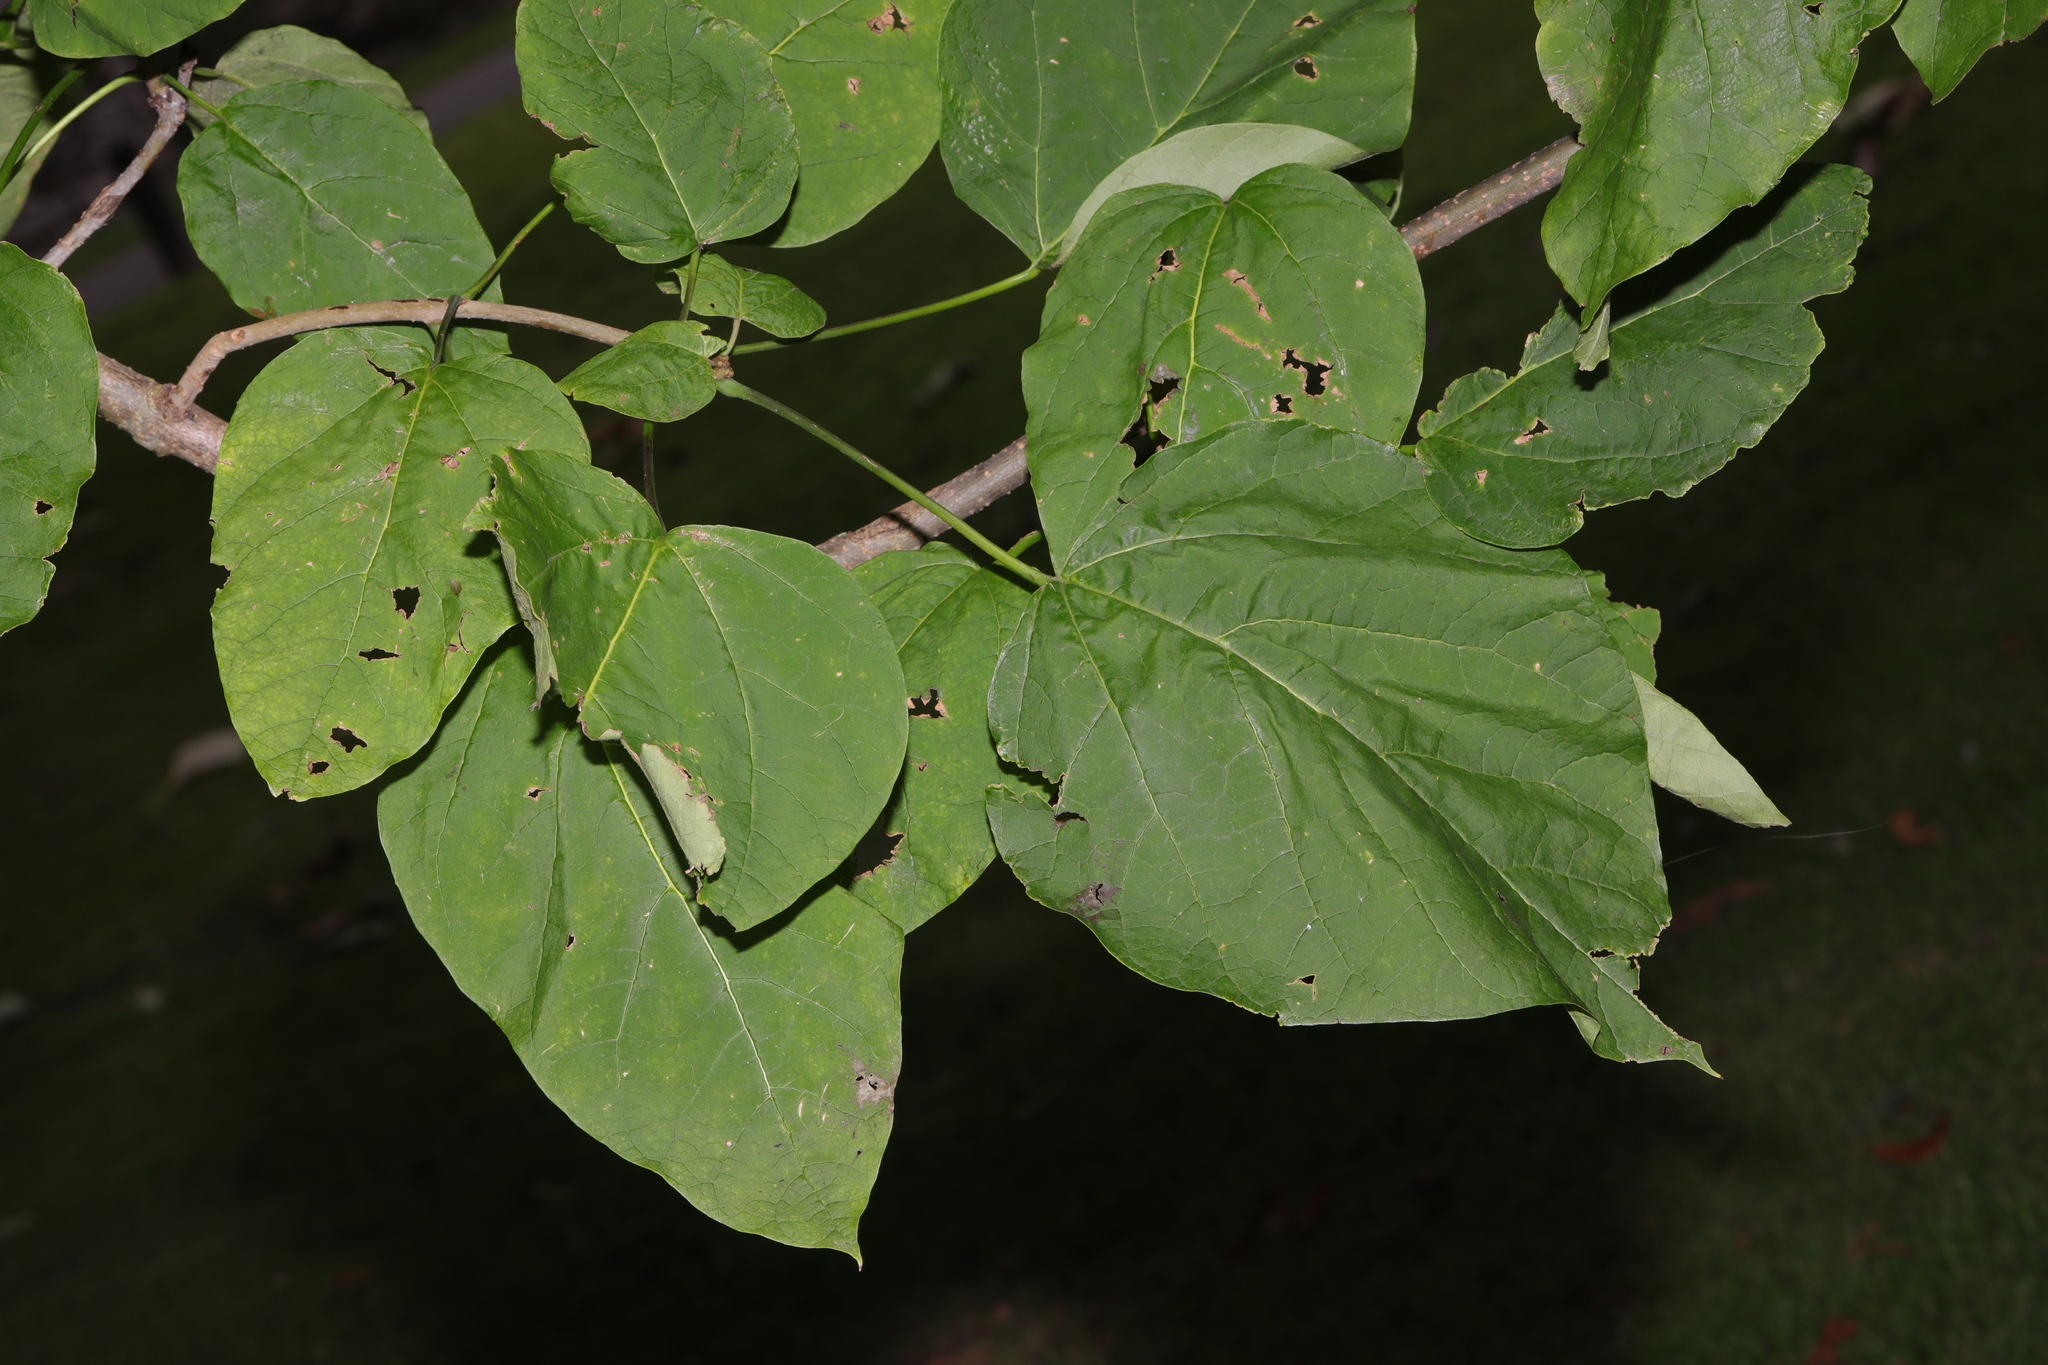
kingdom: Plantae
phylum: Tracheophyta
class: Magnoliopsida
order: Lamiales
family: Bignoniaceae
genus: Catalpa
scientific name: Catalpa bignonioides
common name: Southern catalpa
